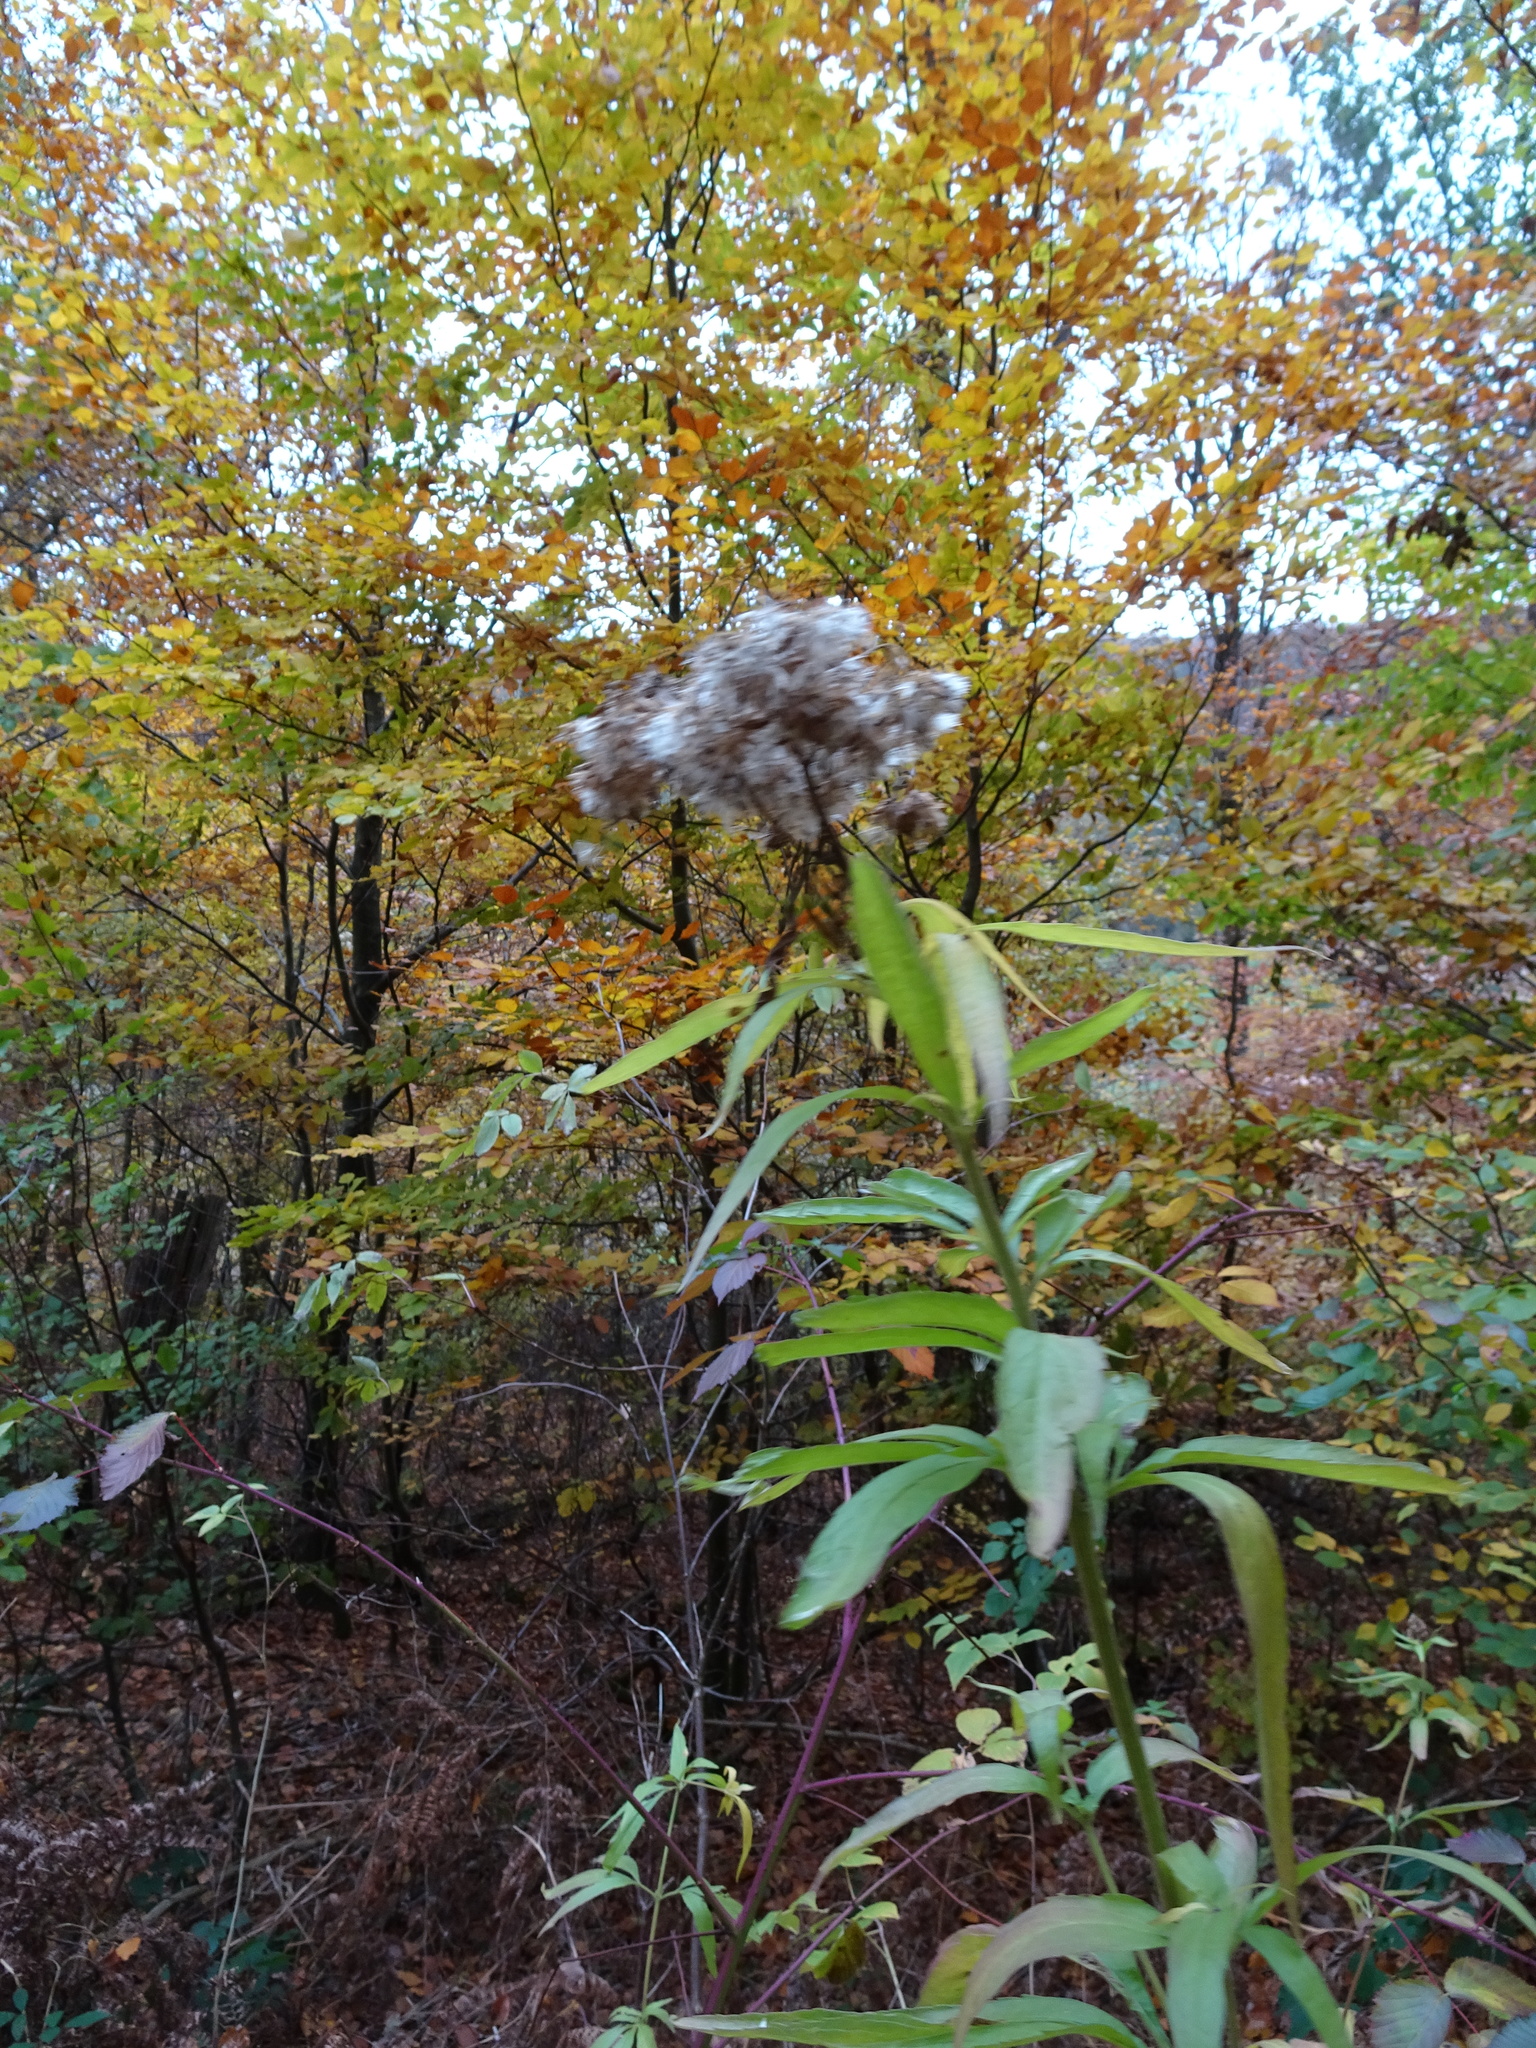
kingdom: Plantae
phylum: Tracheophyta
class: Magnoliopsida
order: Asterales
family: Asteraceae
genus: Eupatorium
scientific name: Eupatorium cannabinum
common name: Hemp-agrimony
